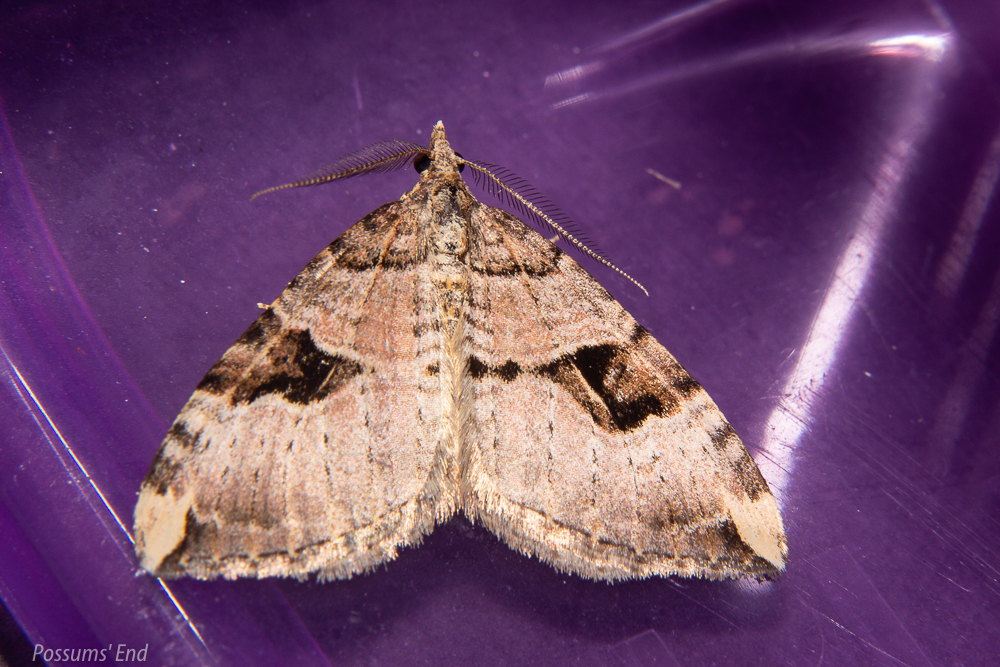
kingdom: Animalia
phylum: Arthropoda
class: Insecta
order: Lepidoptera
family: Geometridae
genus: Xanthorhoe
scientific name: Xanthorhoe semifissata
